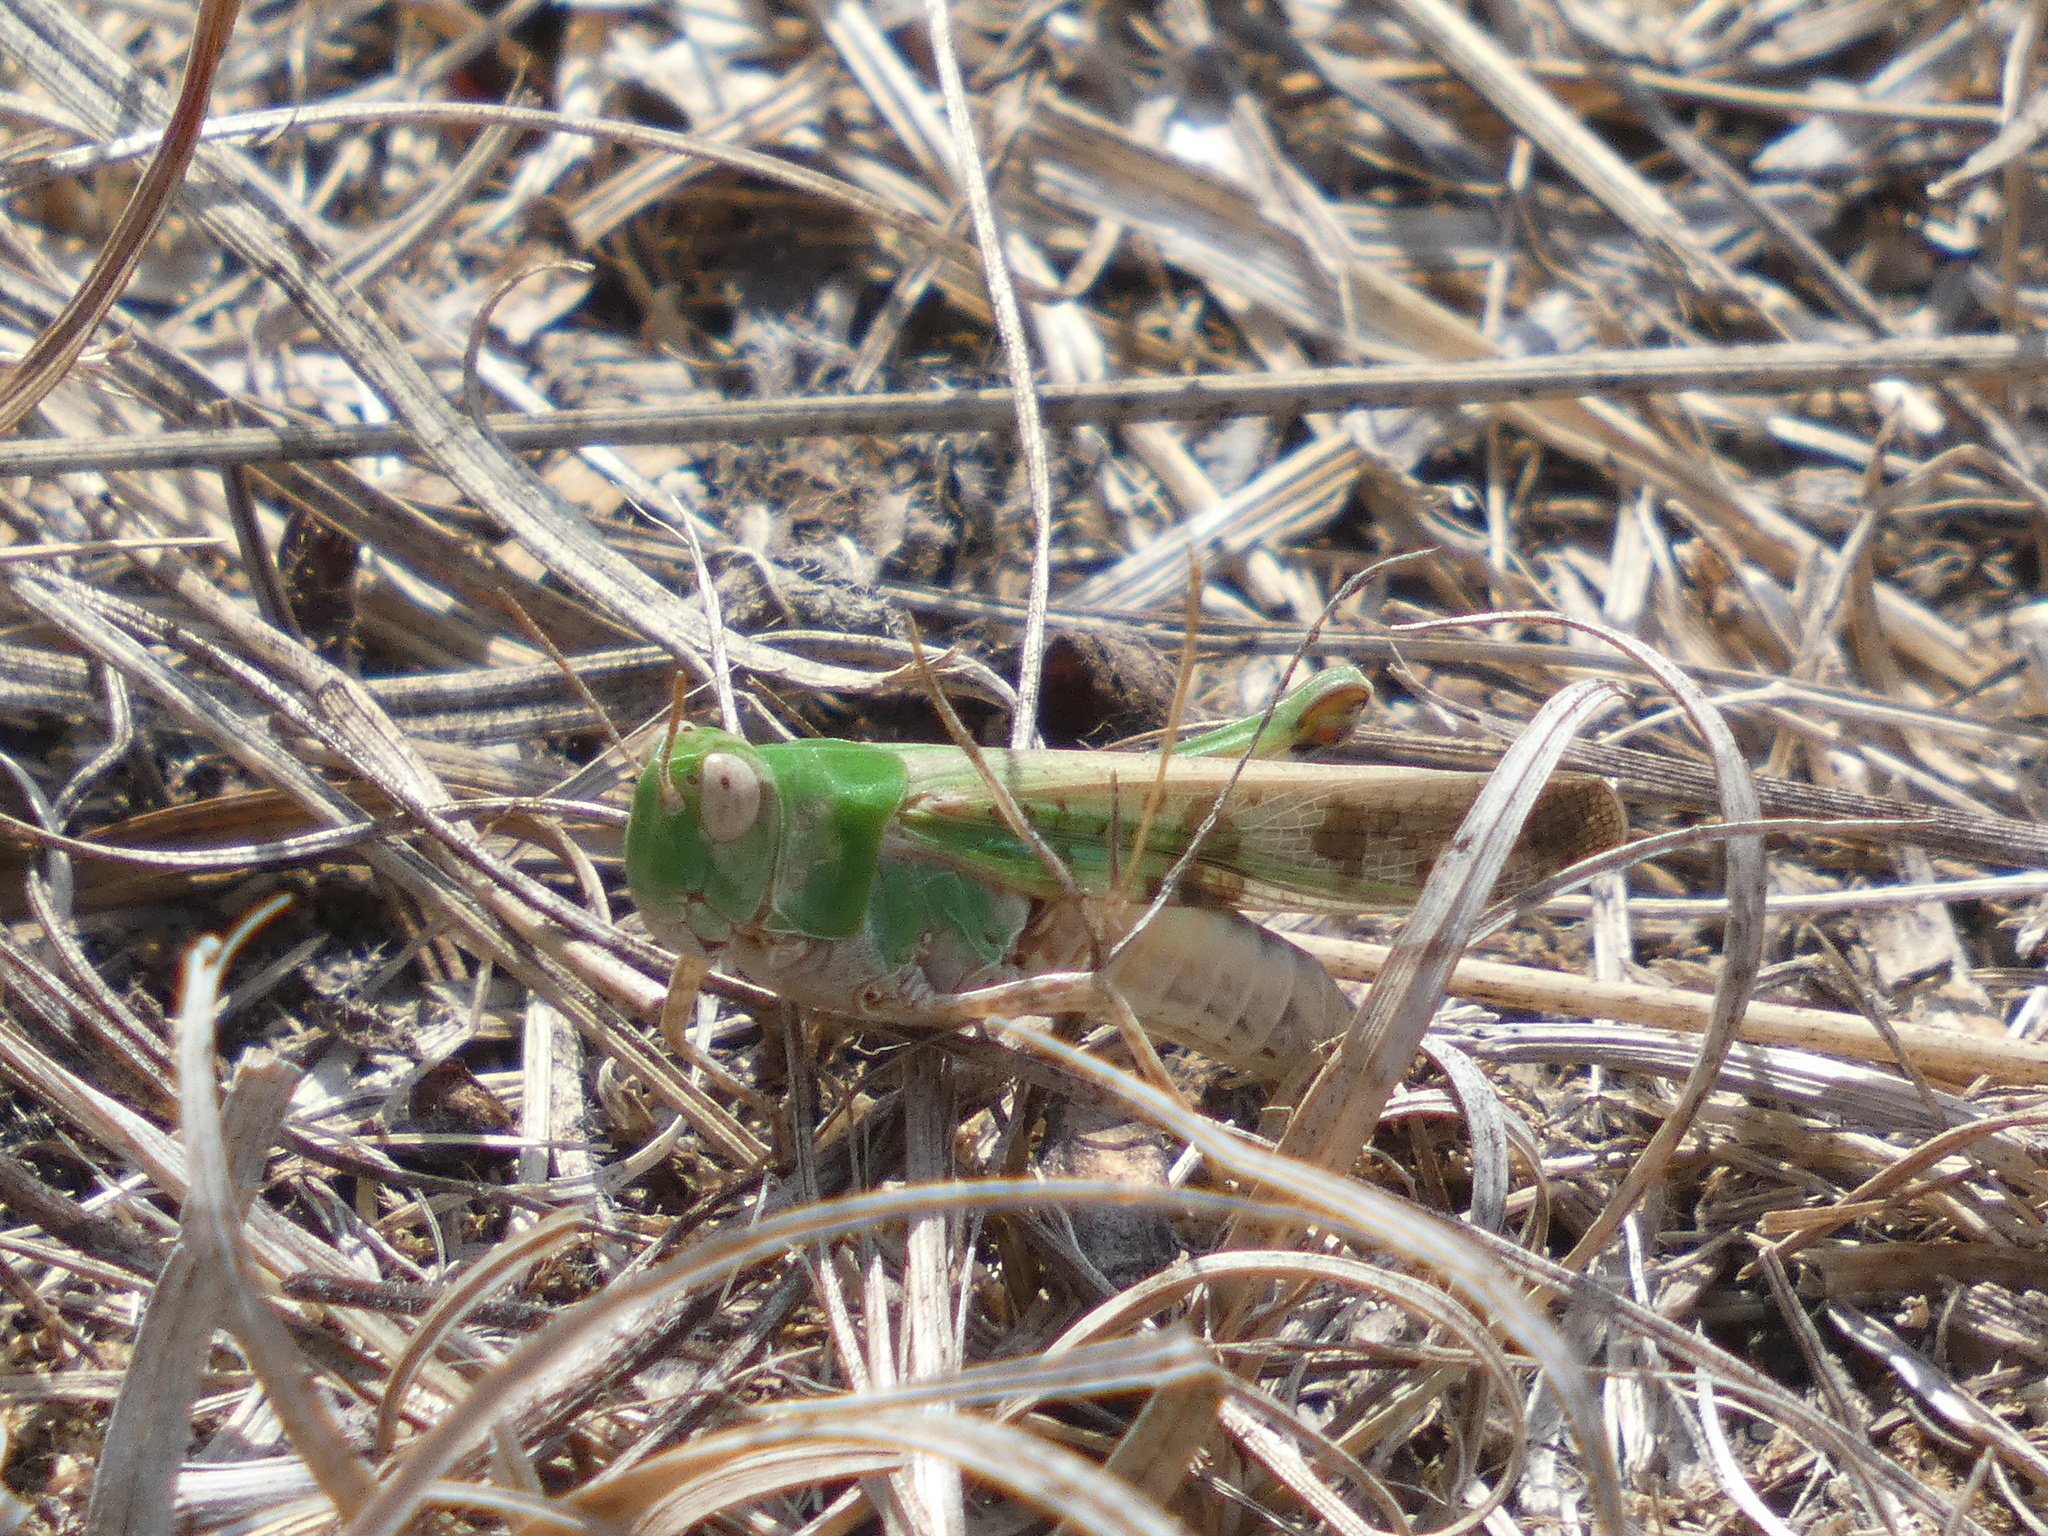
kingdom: Animalia
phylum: Arthropoda
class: Insecta
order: Orthoptera
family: Acrididae
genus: Aiolopus
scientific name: Aiolopus thalassinus
